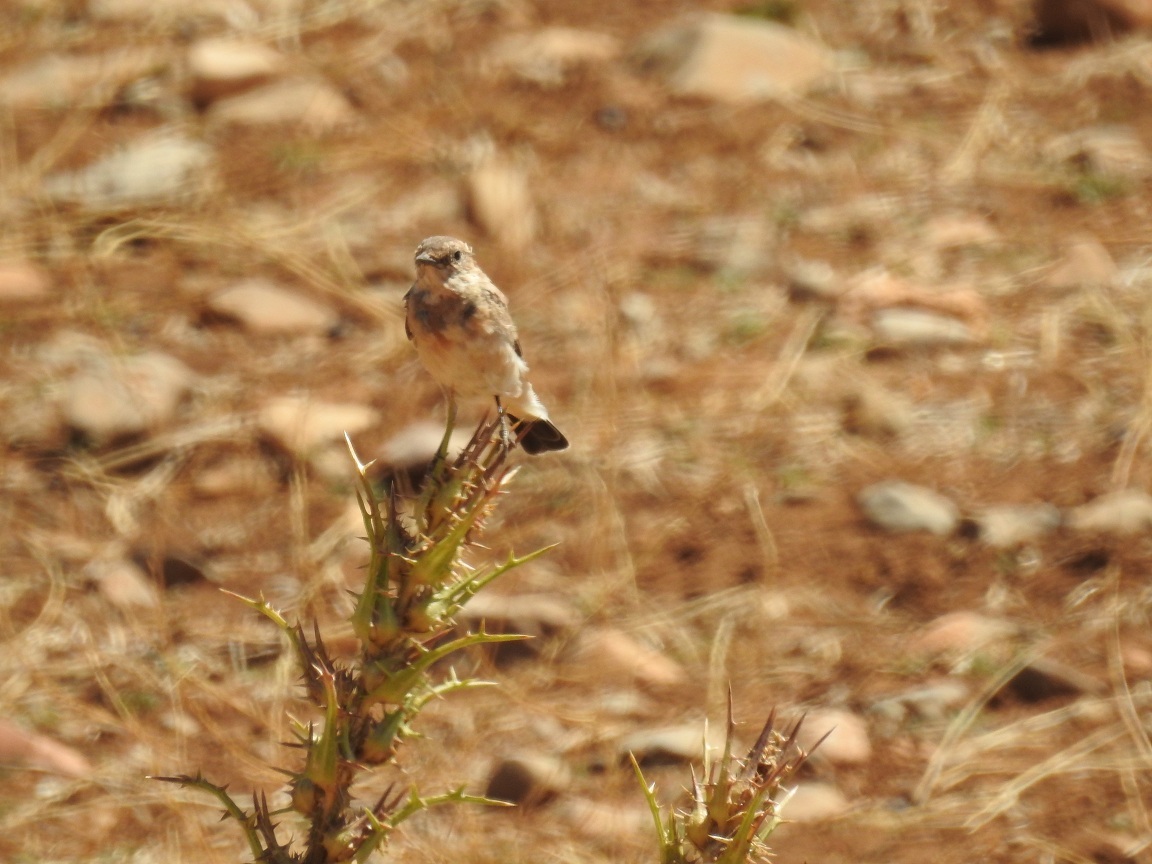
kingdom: Animalia
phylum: Chordata
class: Aves
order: Passeriformes
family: Muscicapidae
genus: Oenanthe
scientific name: Oenanthe hispanica
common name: Black-eared wheatear
